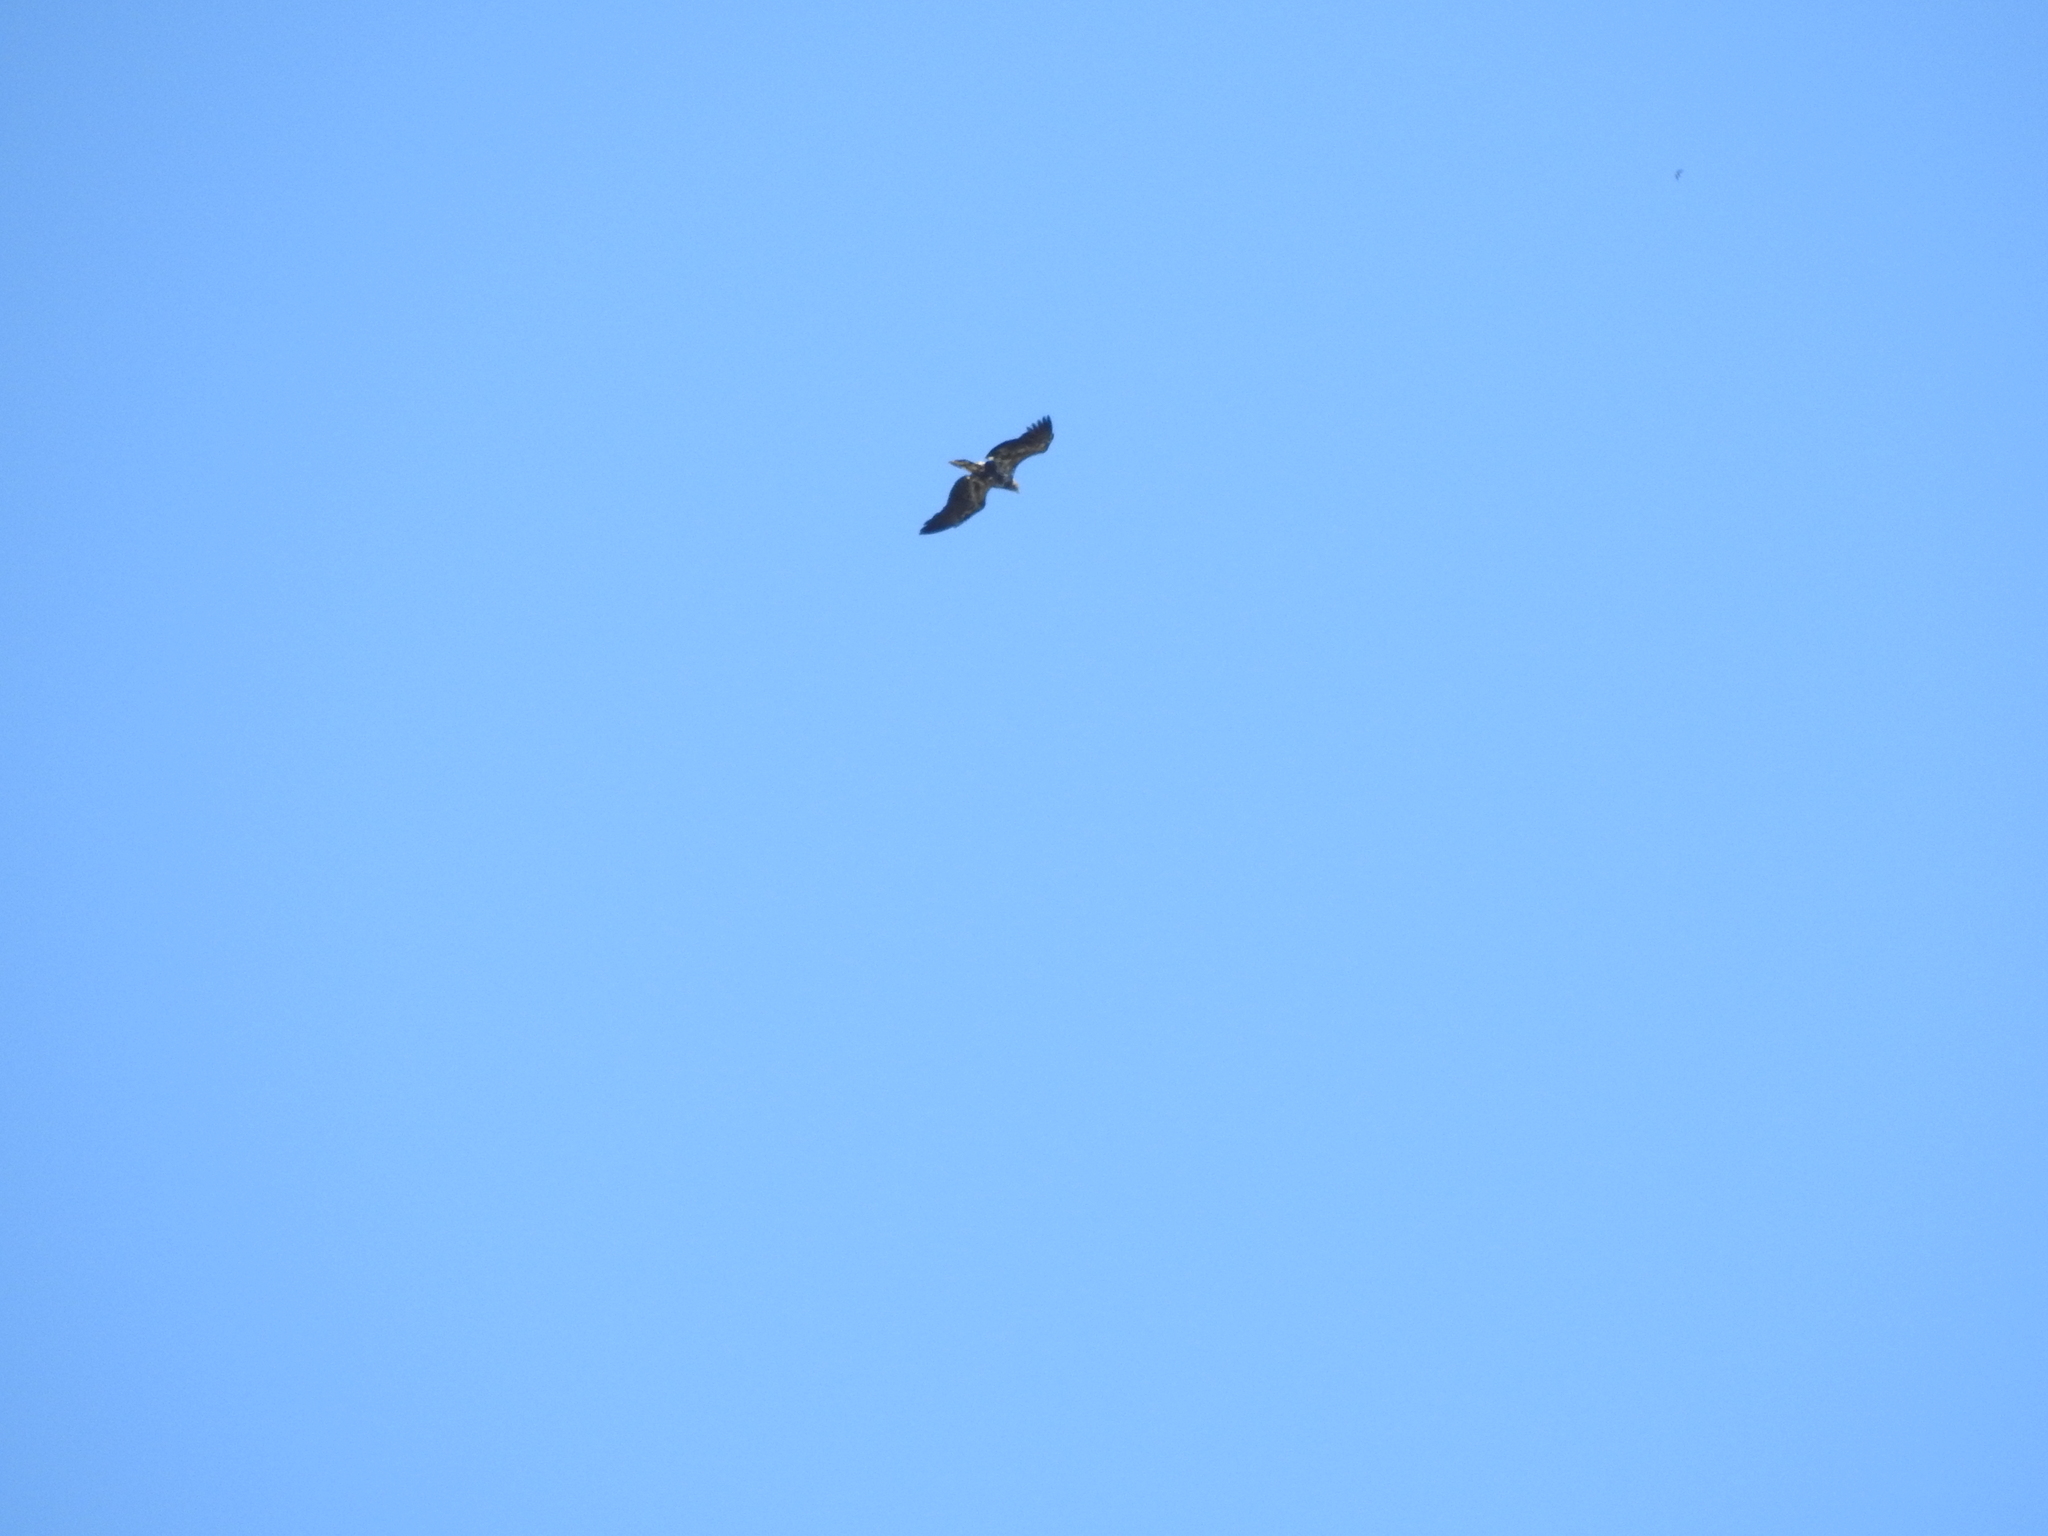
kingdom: Animalia
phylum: Chordata
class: Aves
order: Accipitriformes
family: Accipitridae
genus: Haliaeetus
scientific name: Haliaeetus leucocephalus
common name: Bald eagle
